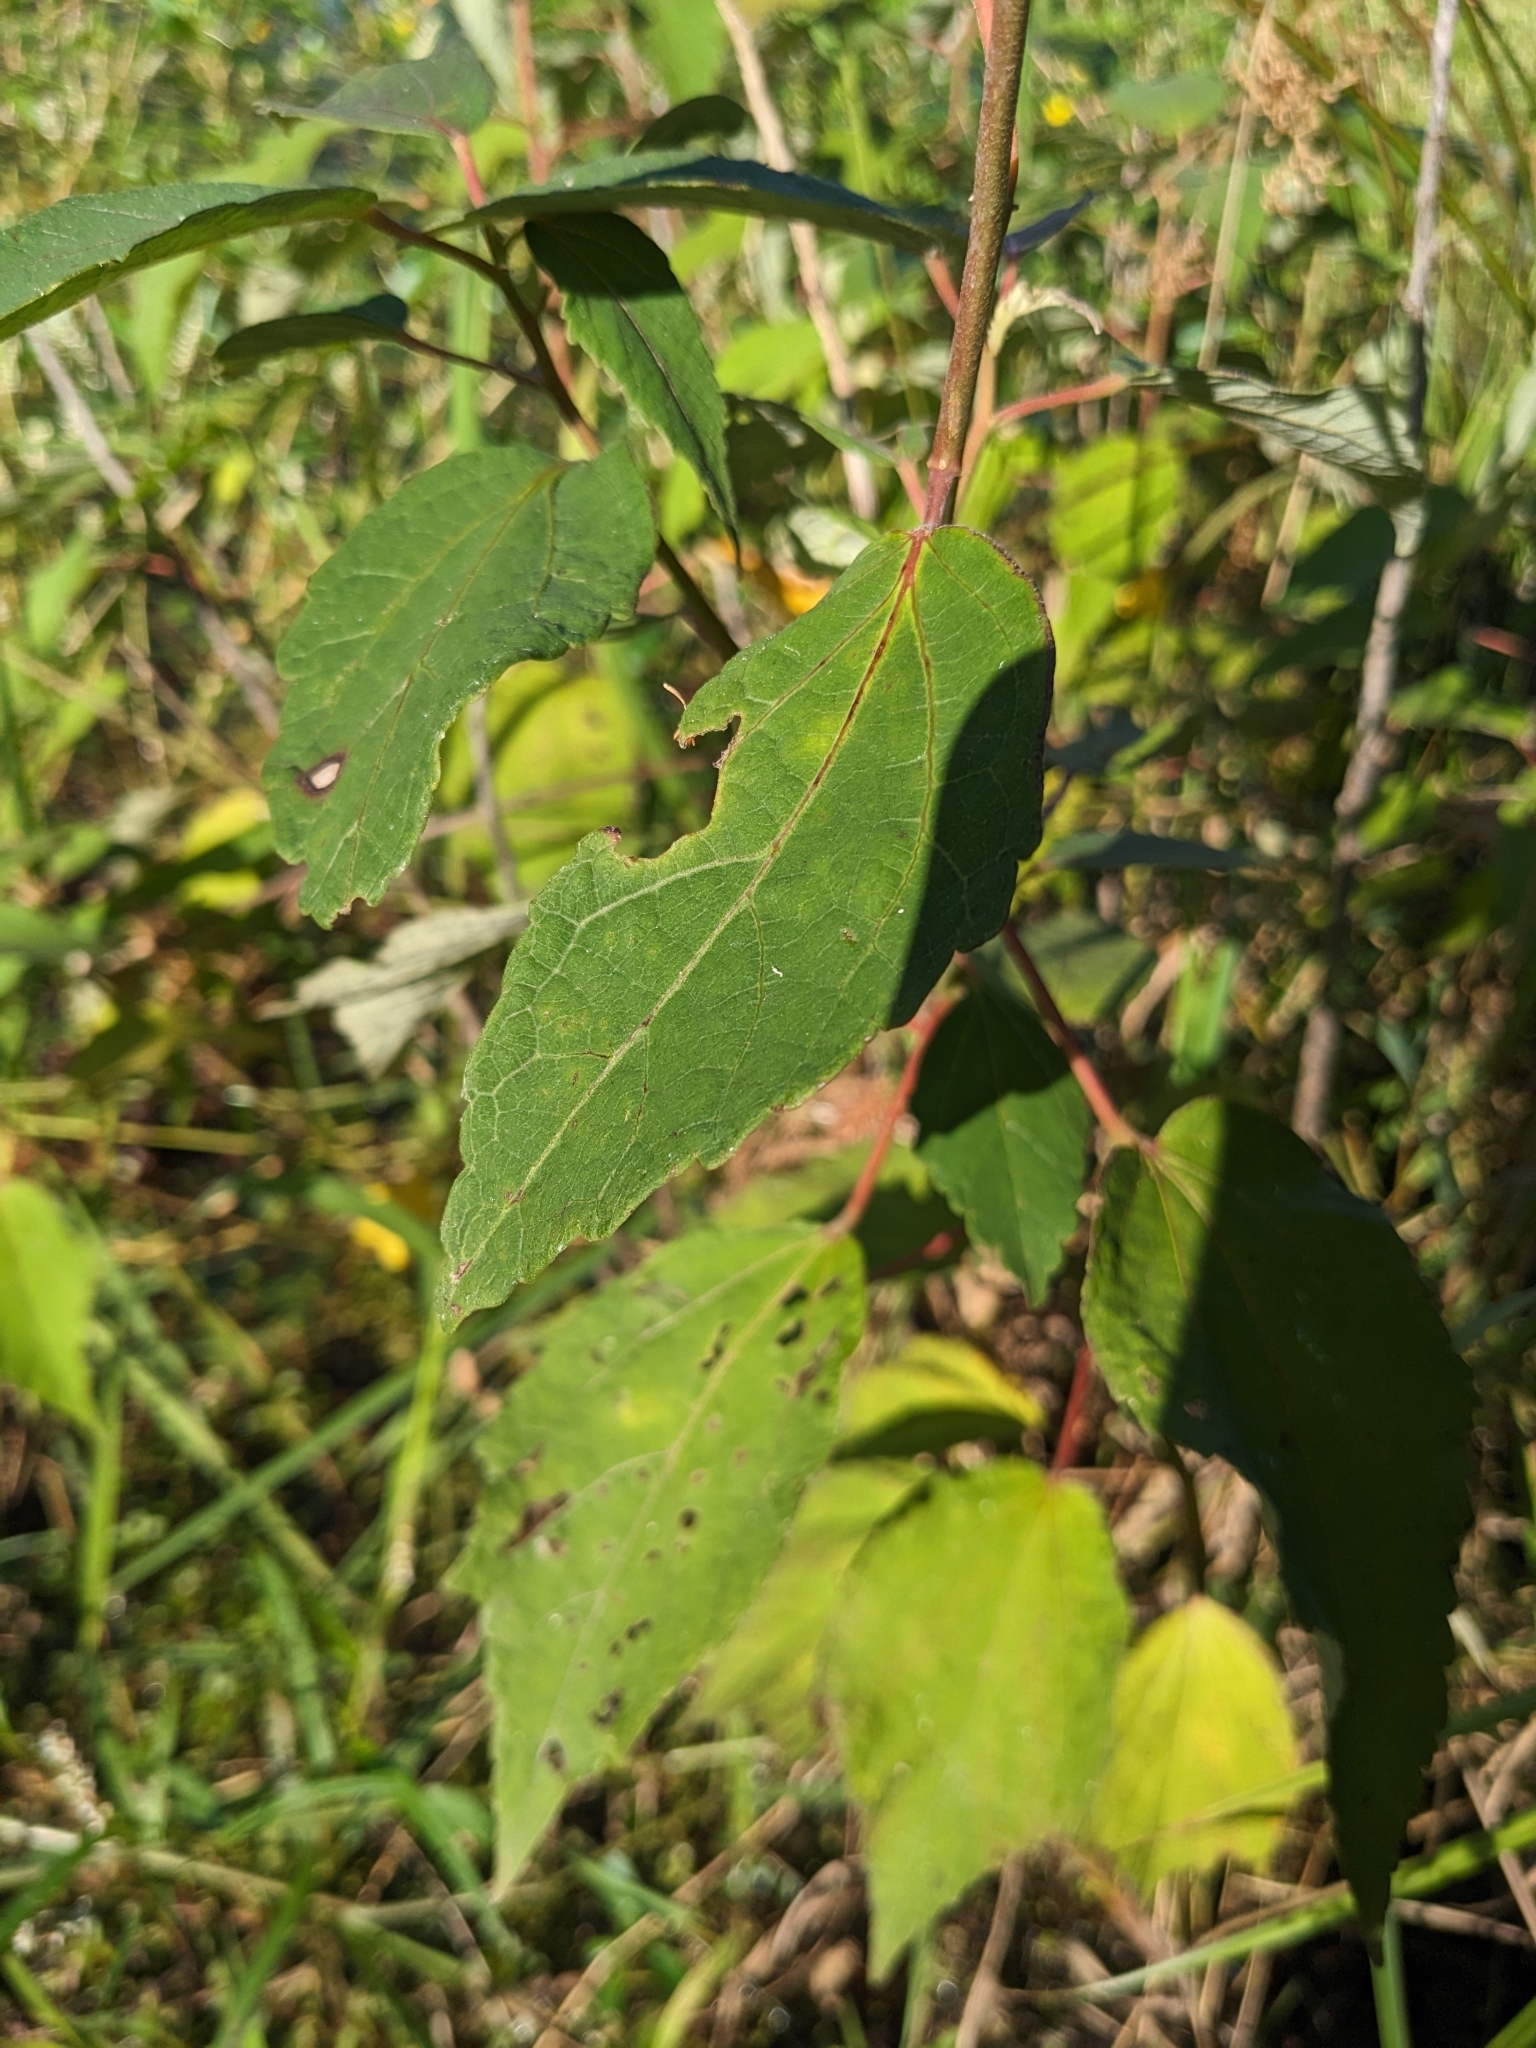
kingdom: Plantae
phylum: Tracheophyta
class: Magnoliopsida
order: Malvales
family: Malvaceae
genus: Hibiscus
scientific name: Hibiscus moscheutos
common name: Common rose-mallow
